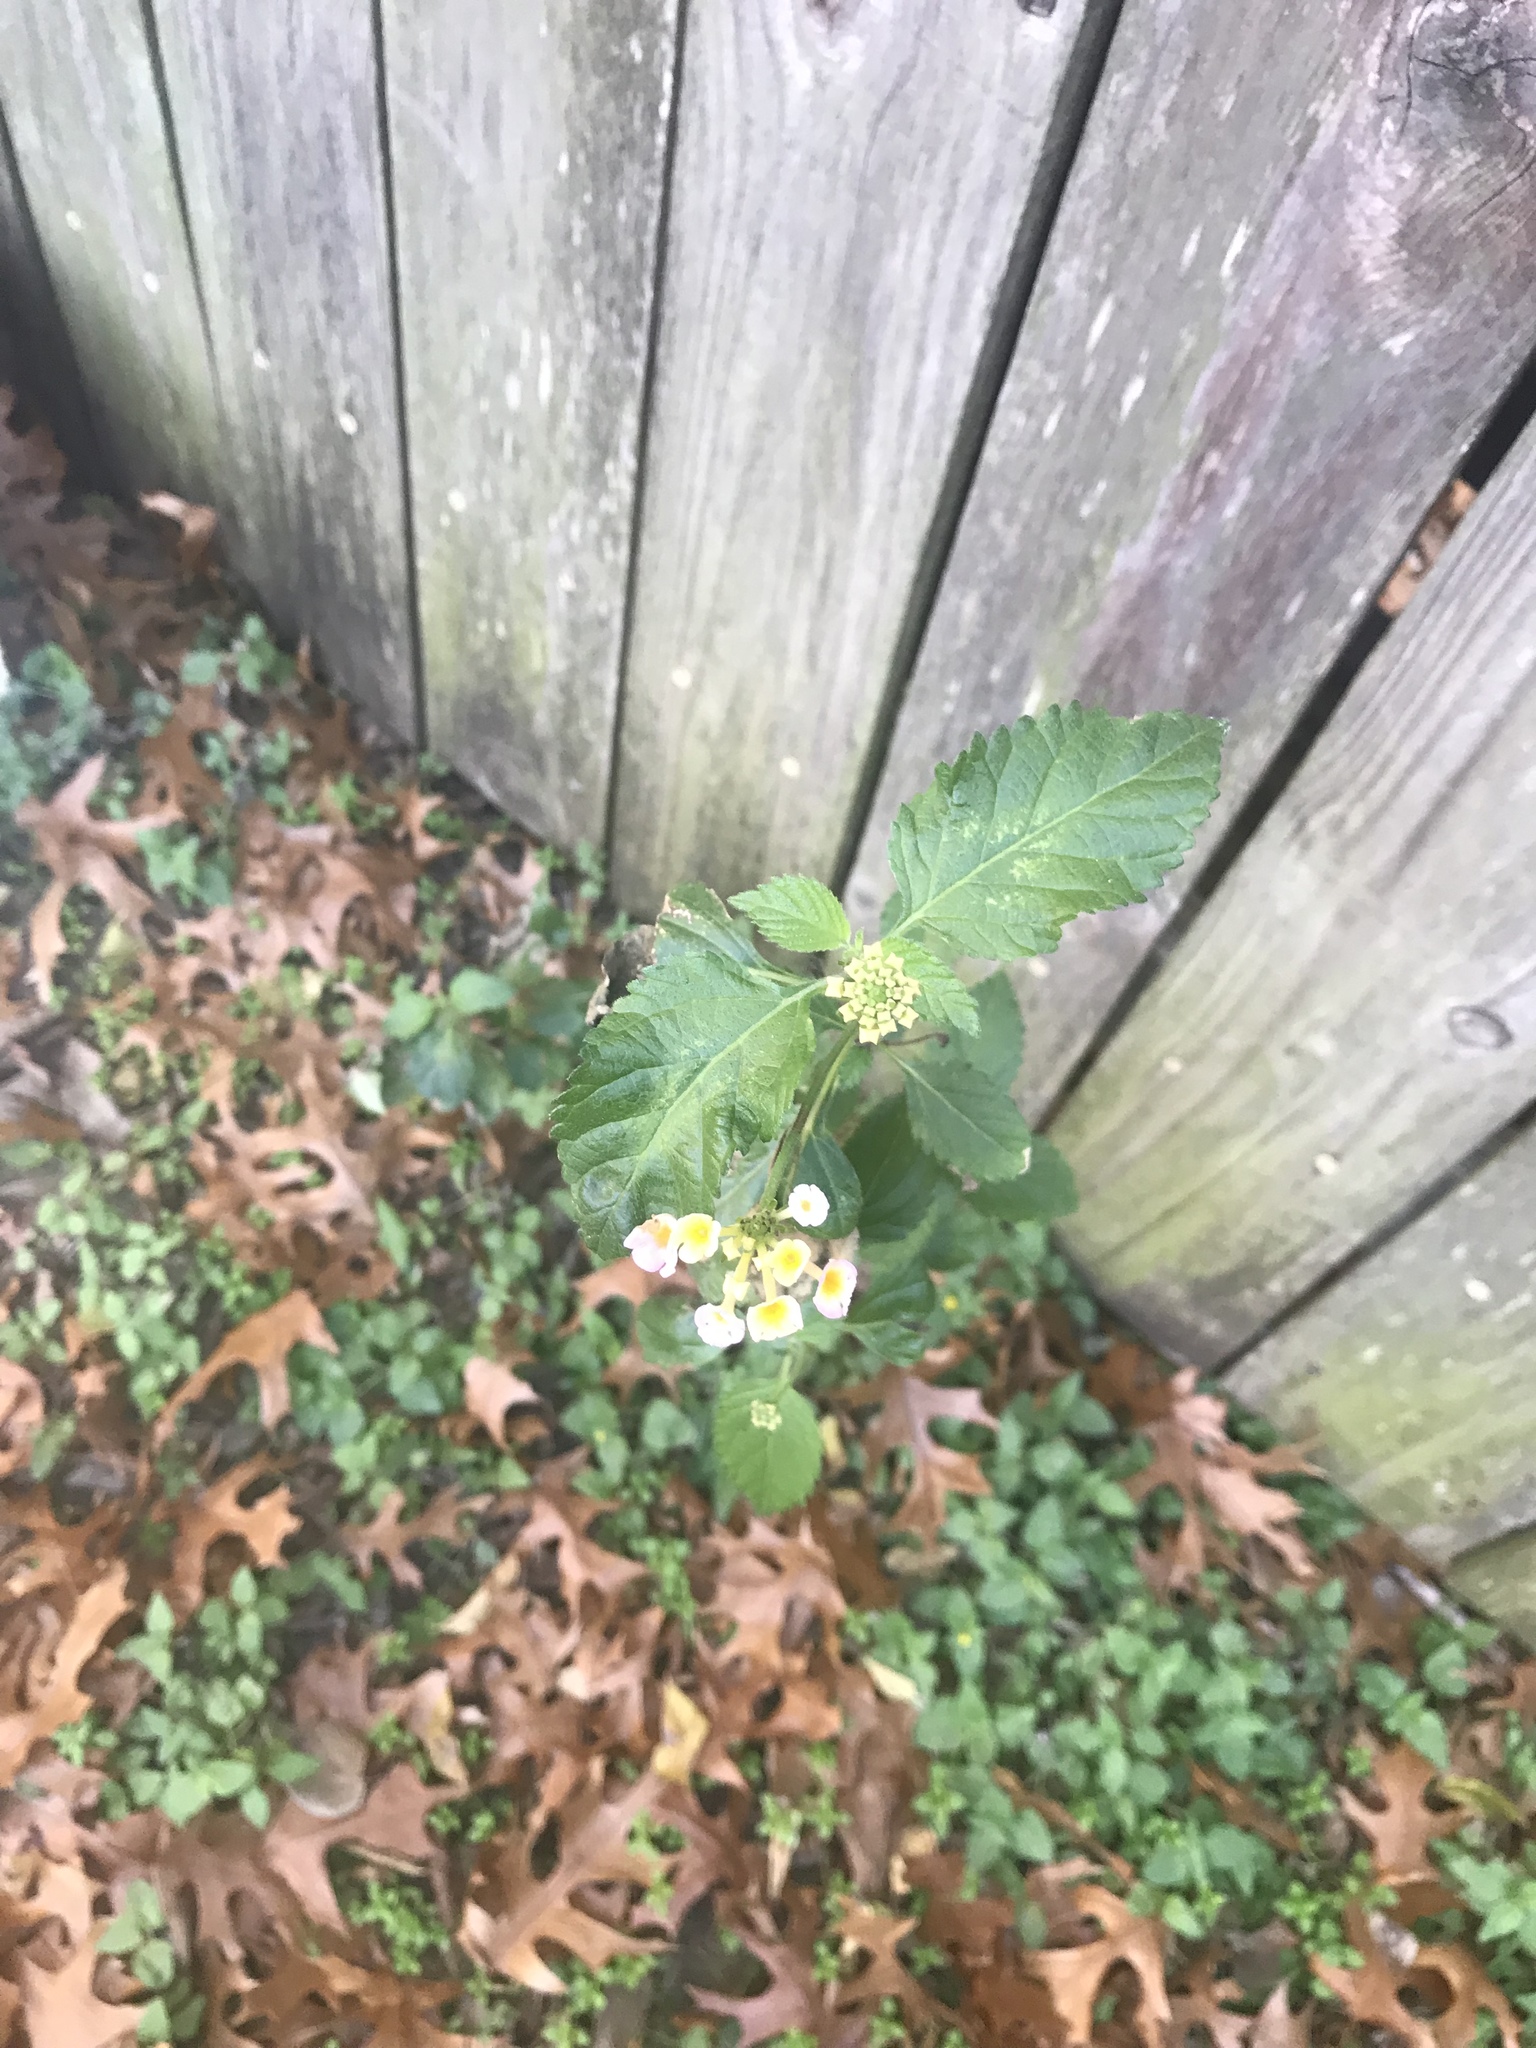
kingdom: Plantae
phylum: Tracheophyta
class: Magnoliopsida
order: Lamiales
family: Verbenaceae
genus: Lantana
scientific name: Lantana strigocamara
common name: Lantana
